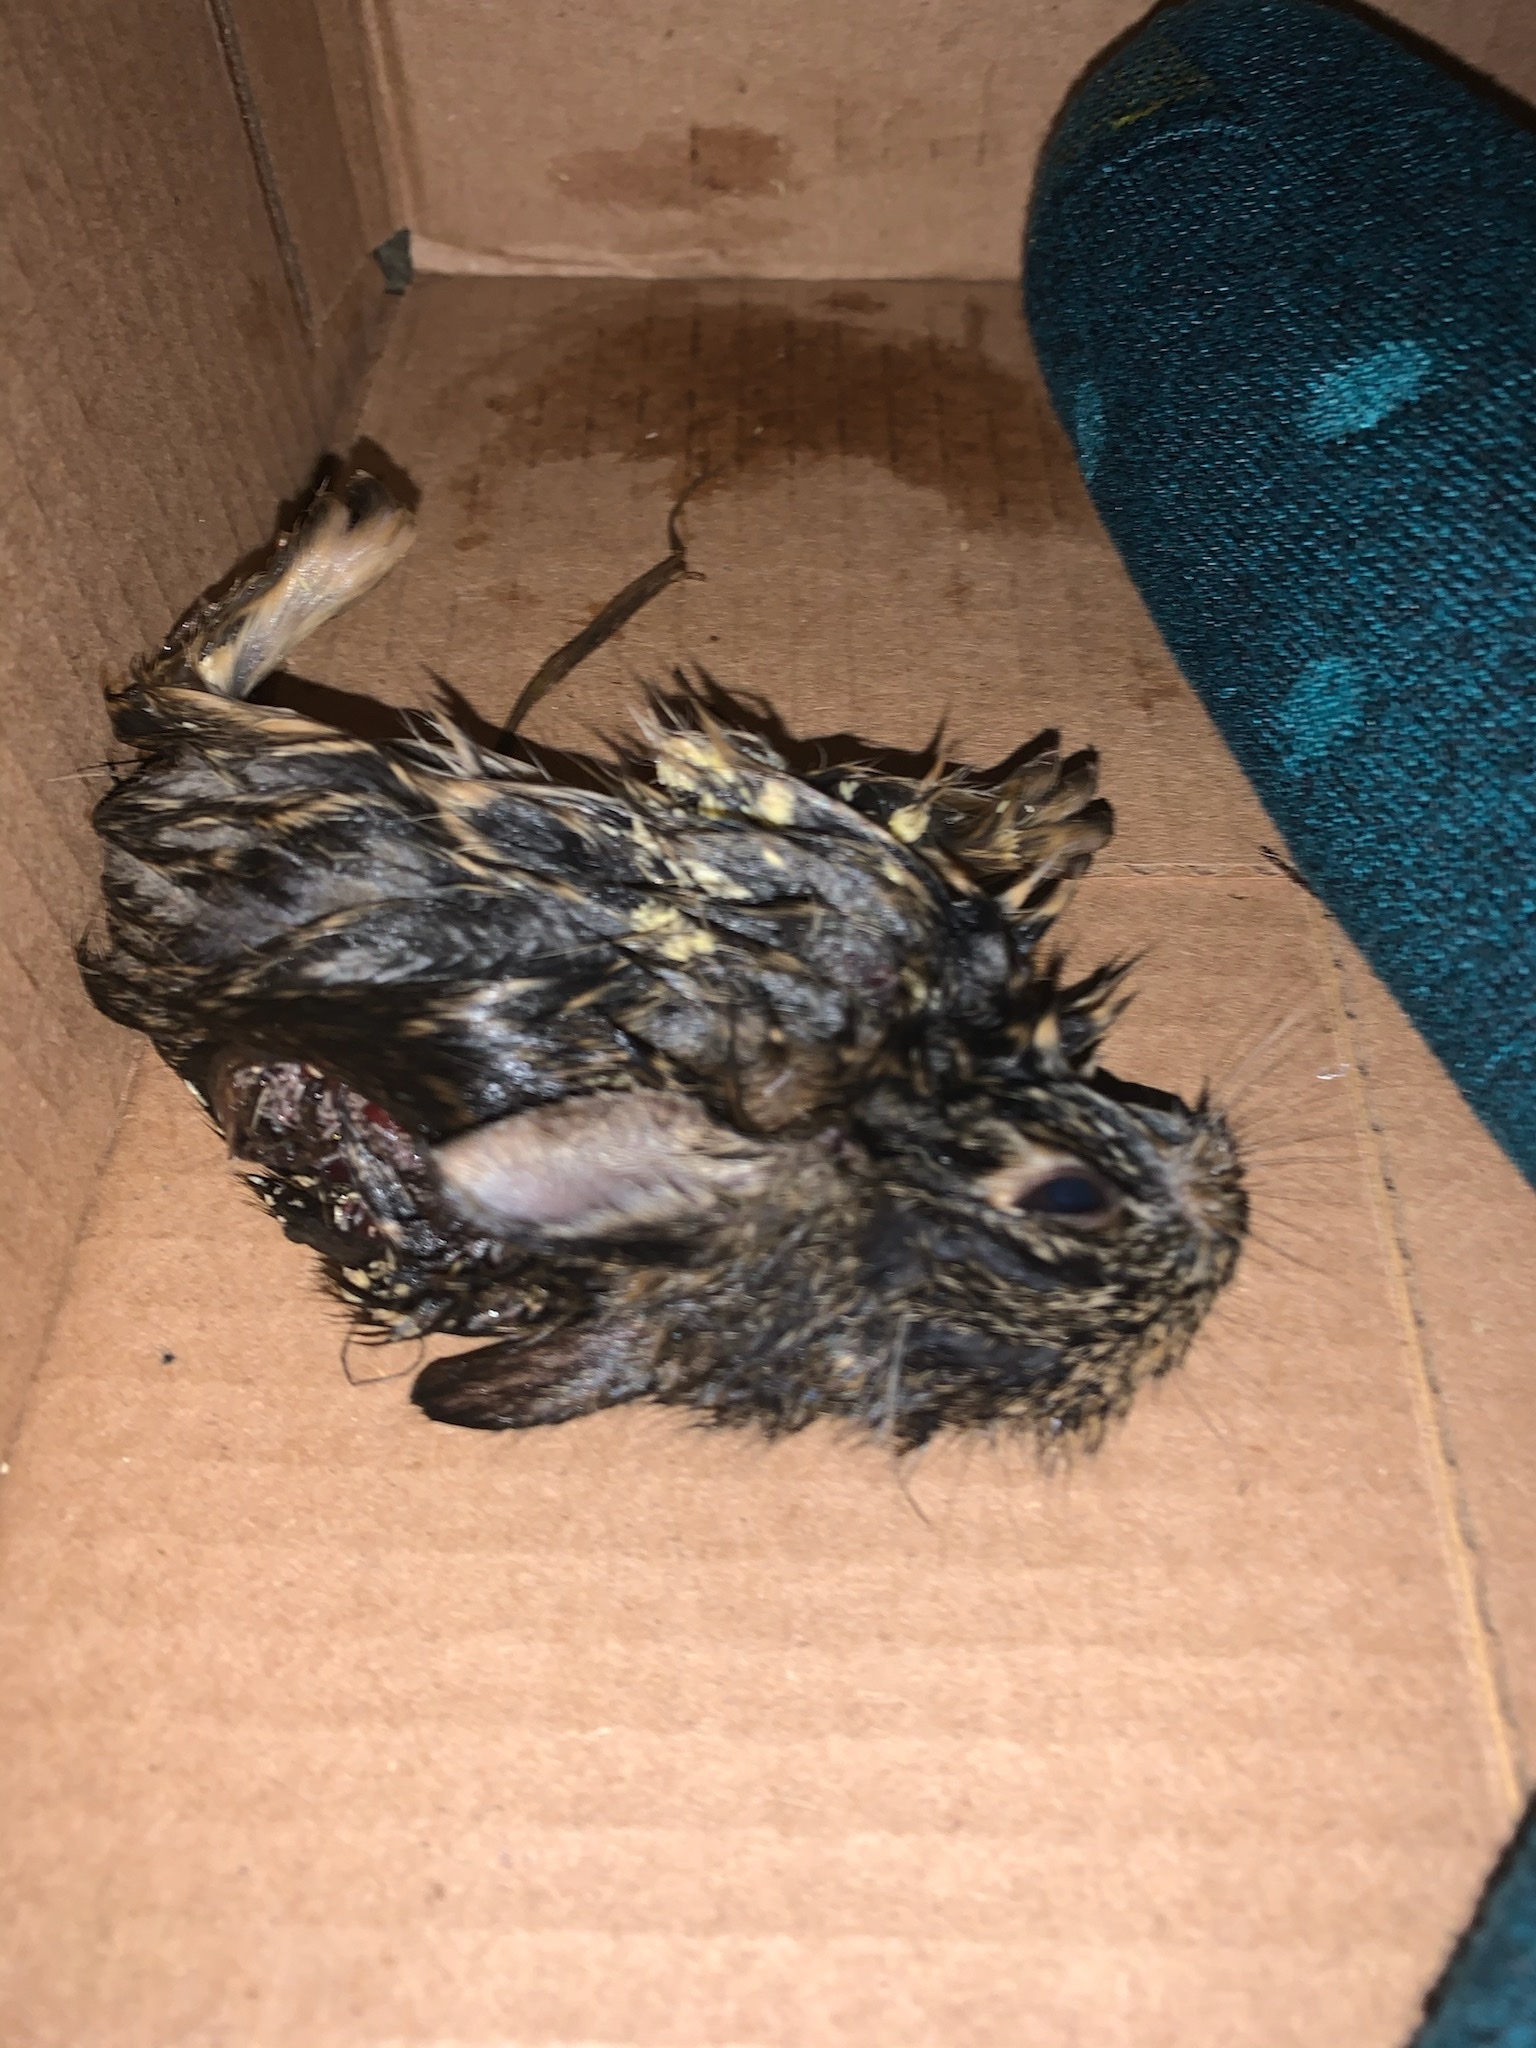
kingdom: Animalia
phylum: Chordata
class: Mammalia
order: Lagomorpha
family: Leporidae
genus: Sylvilagus
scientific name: Sylvilagus floridanus
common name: Eastern cottontail
